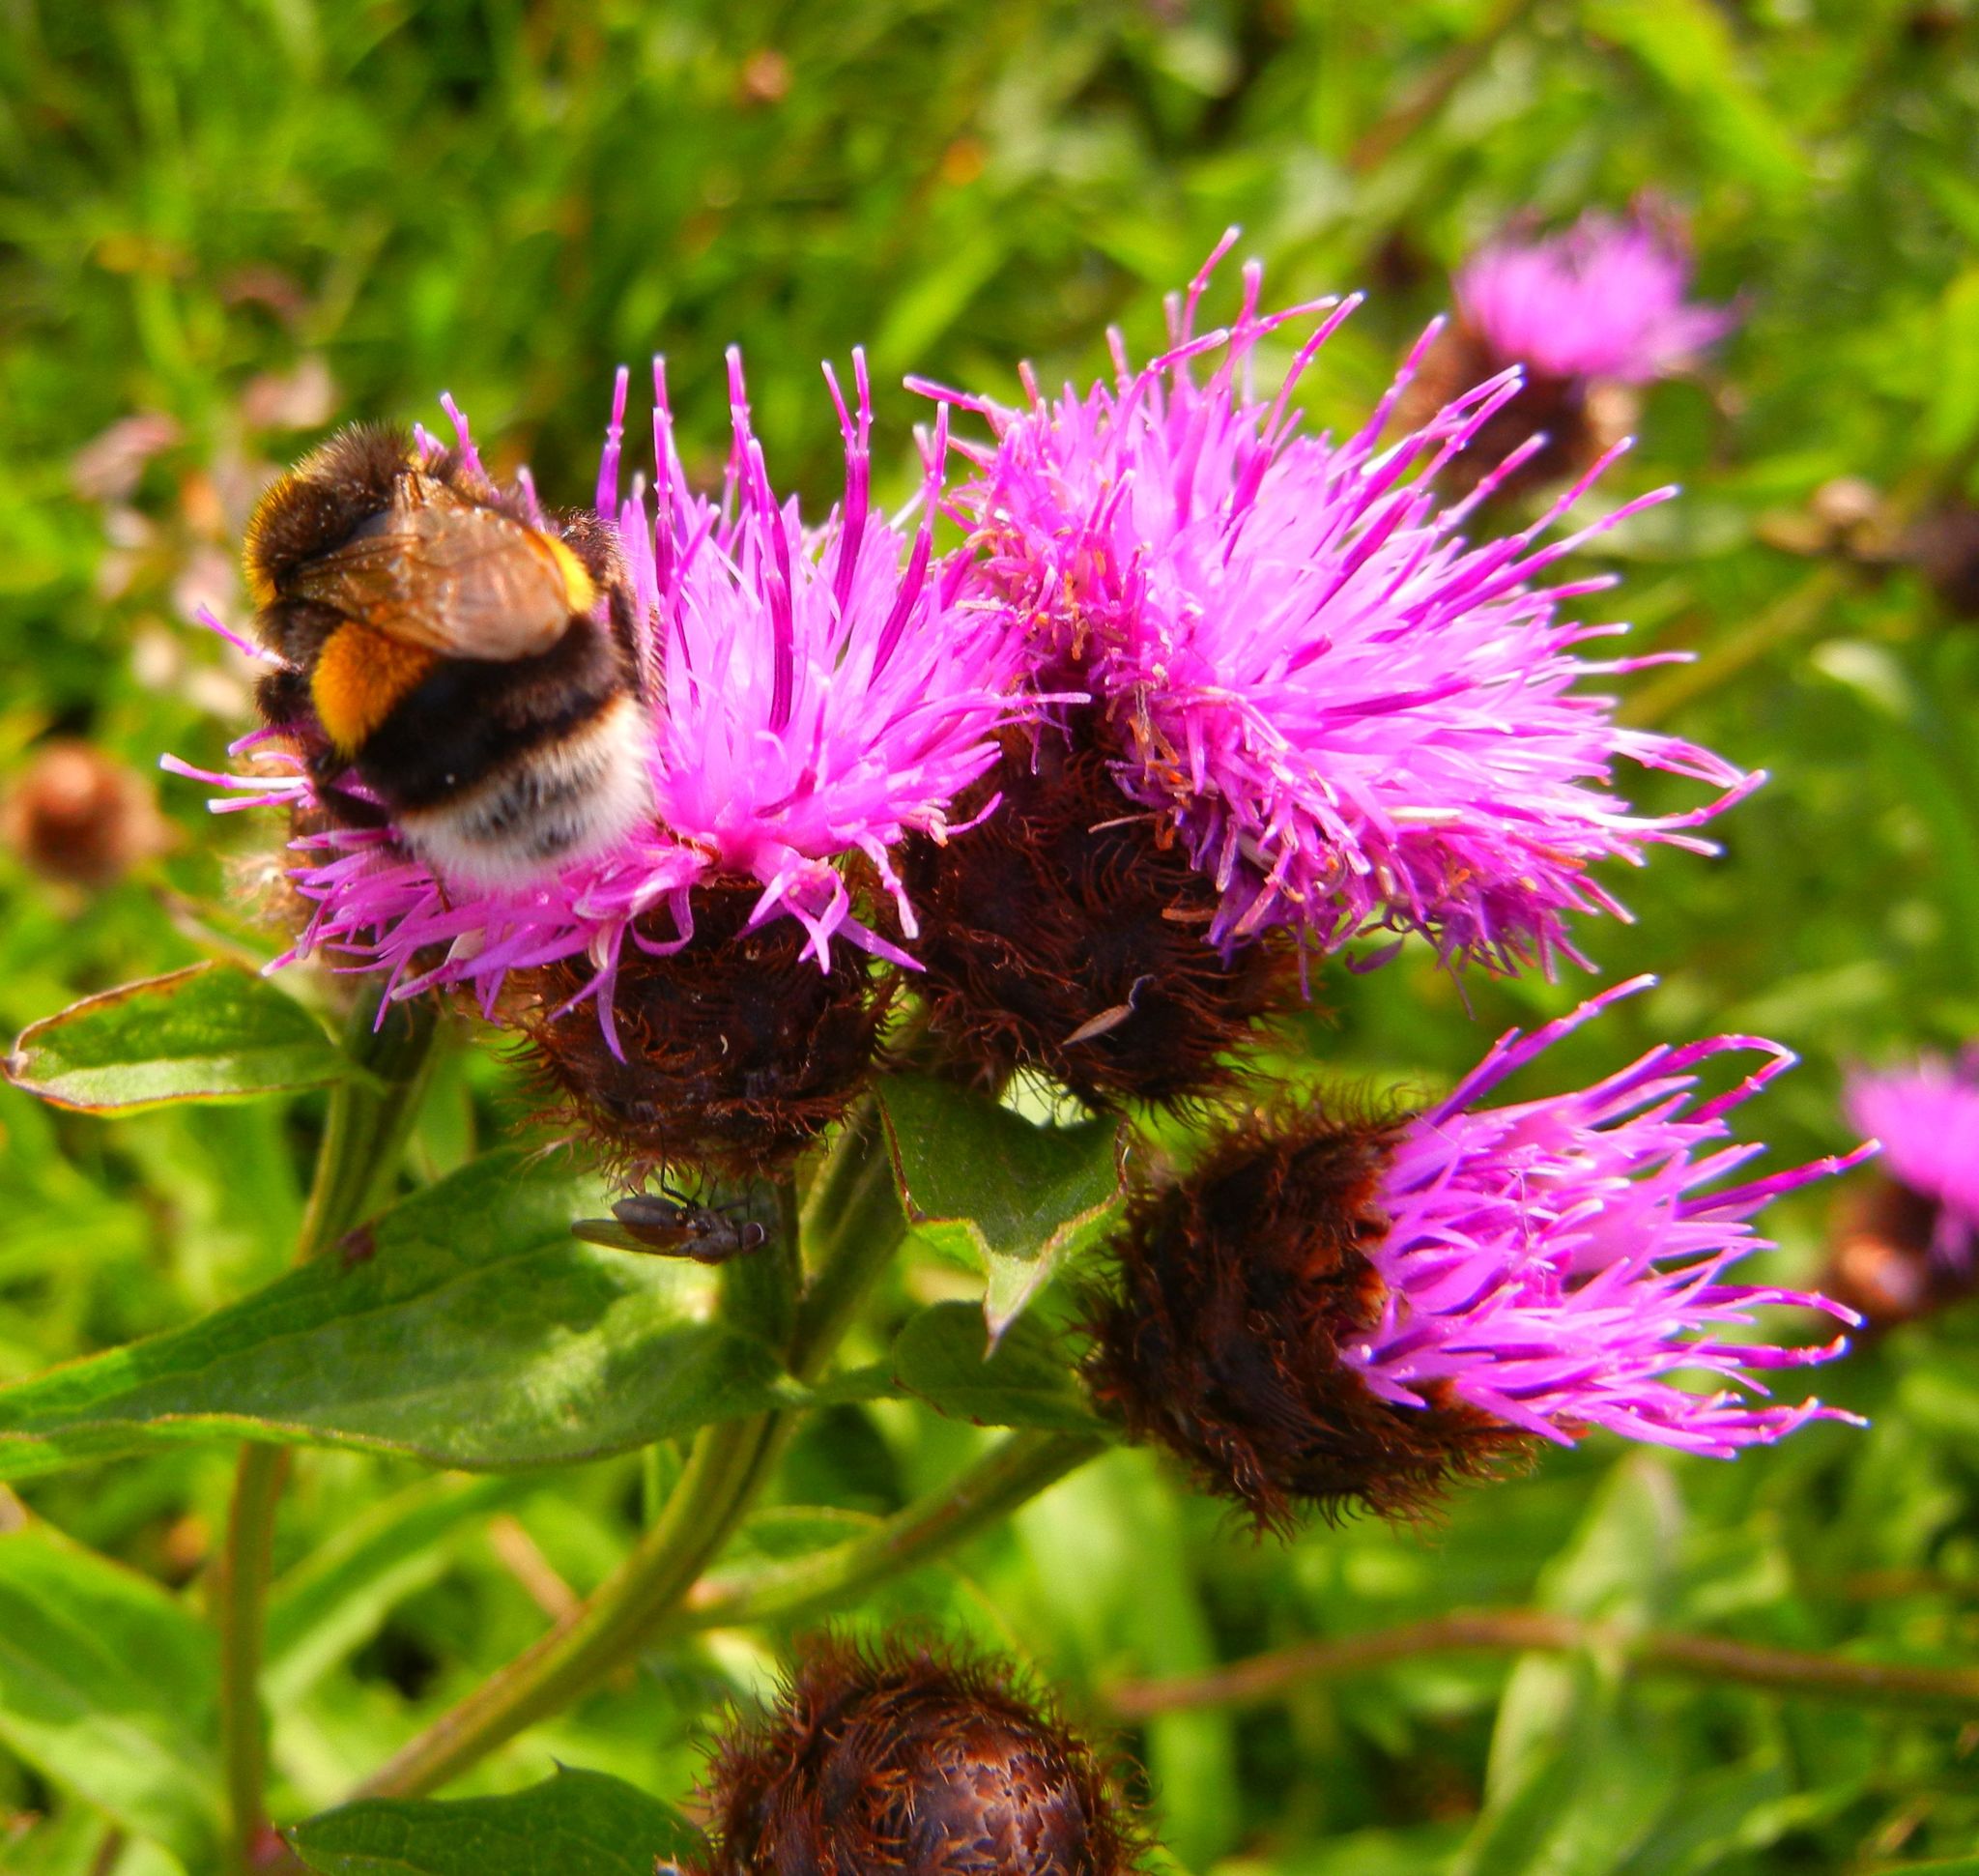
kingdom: Plantae
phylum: Tracheophyta
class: Magnoliopsida
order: Asterales
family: Asteraceae
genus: Centaurea
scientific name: Centaurea nigra
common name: Lesser knapweed
